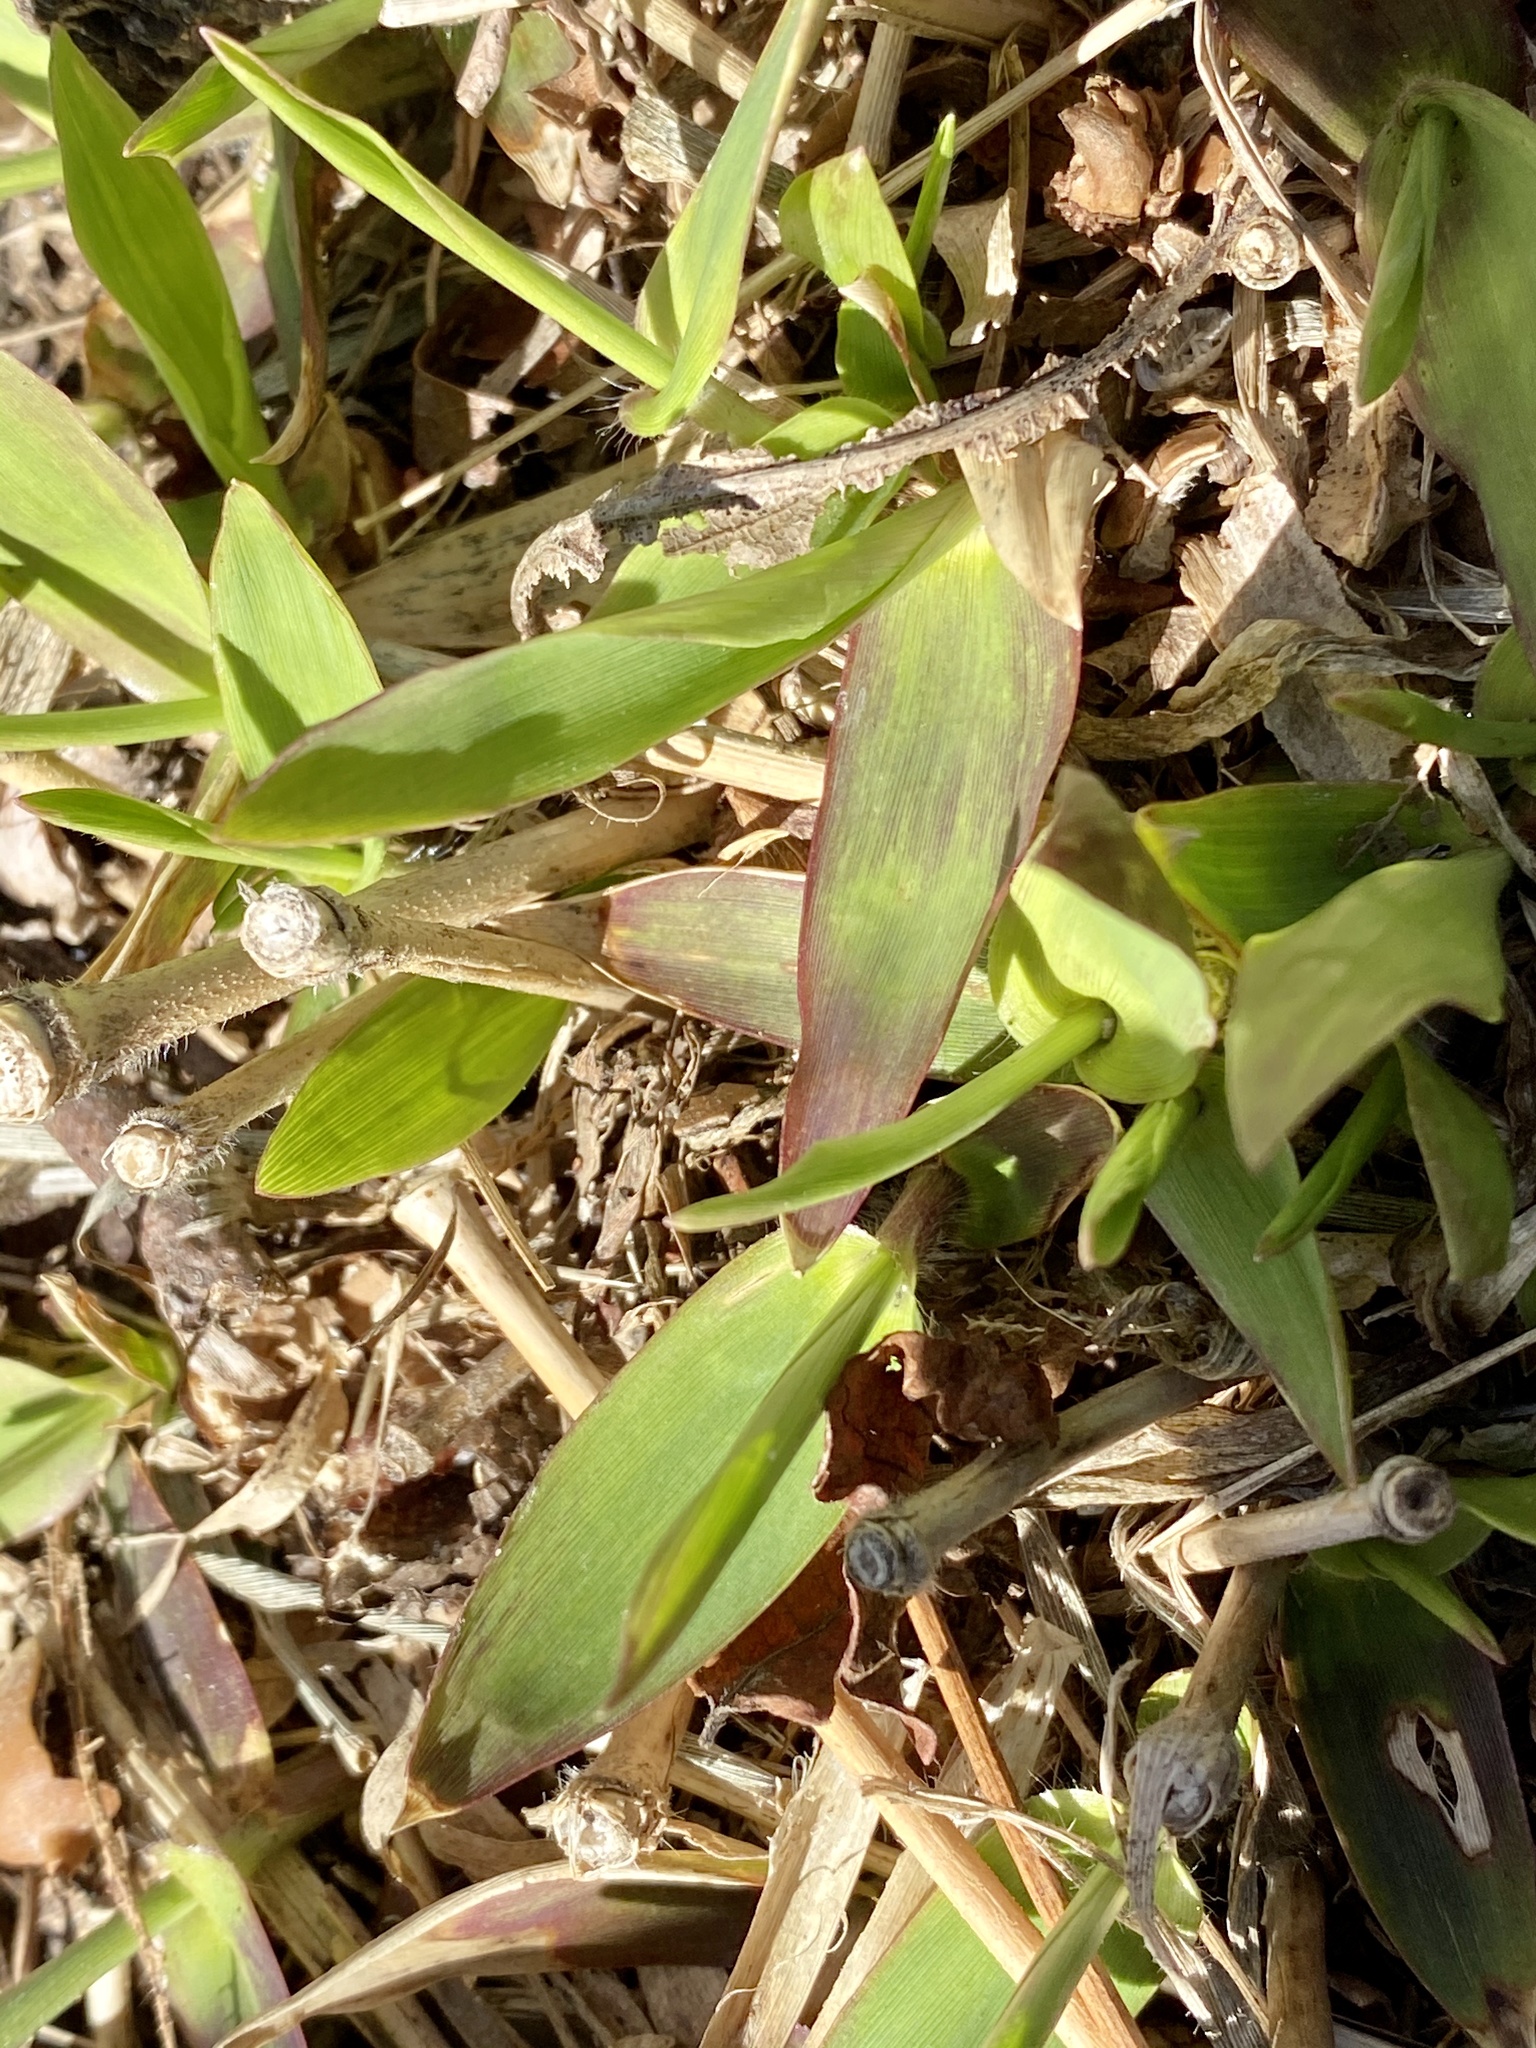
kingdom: Plantae
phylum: Tracheophyta
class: Liliopsida
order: Poales
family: Poaceae
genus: Dichanthelium
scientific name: Dichanthelium clandestinum
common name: Deer-tongue grass
